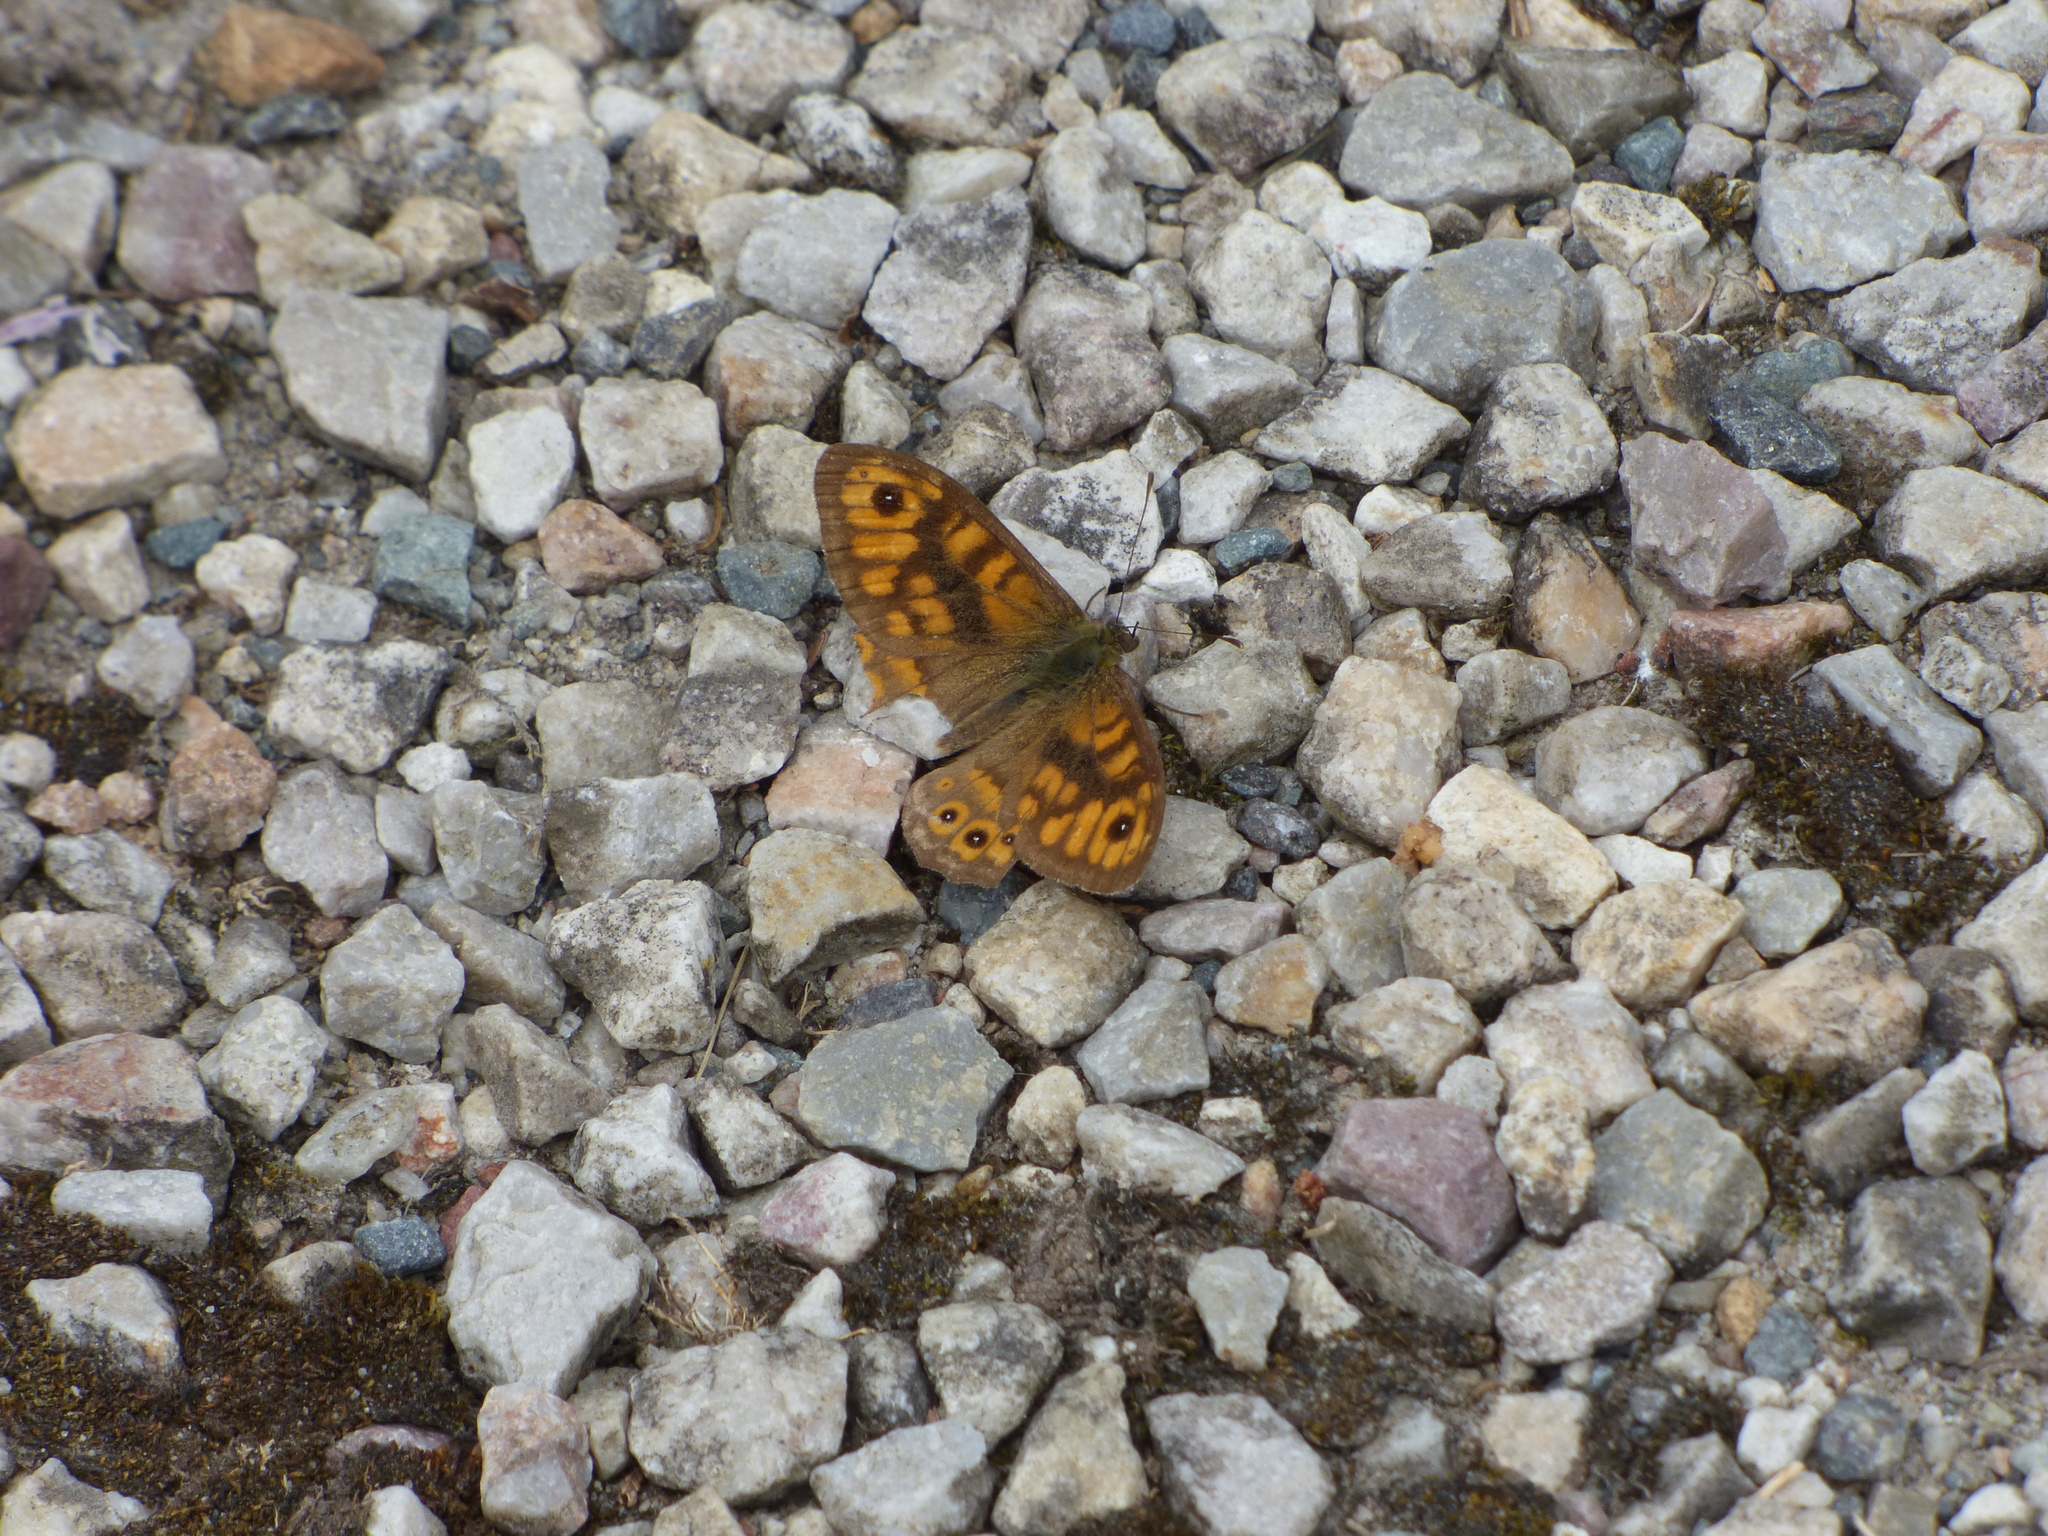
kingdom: Animalia
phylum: Arthropoda
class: Insecta
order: Lepidoptera
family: Nymphalidae
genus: Pararge
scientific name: Pararge Lasiommata megera
